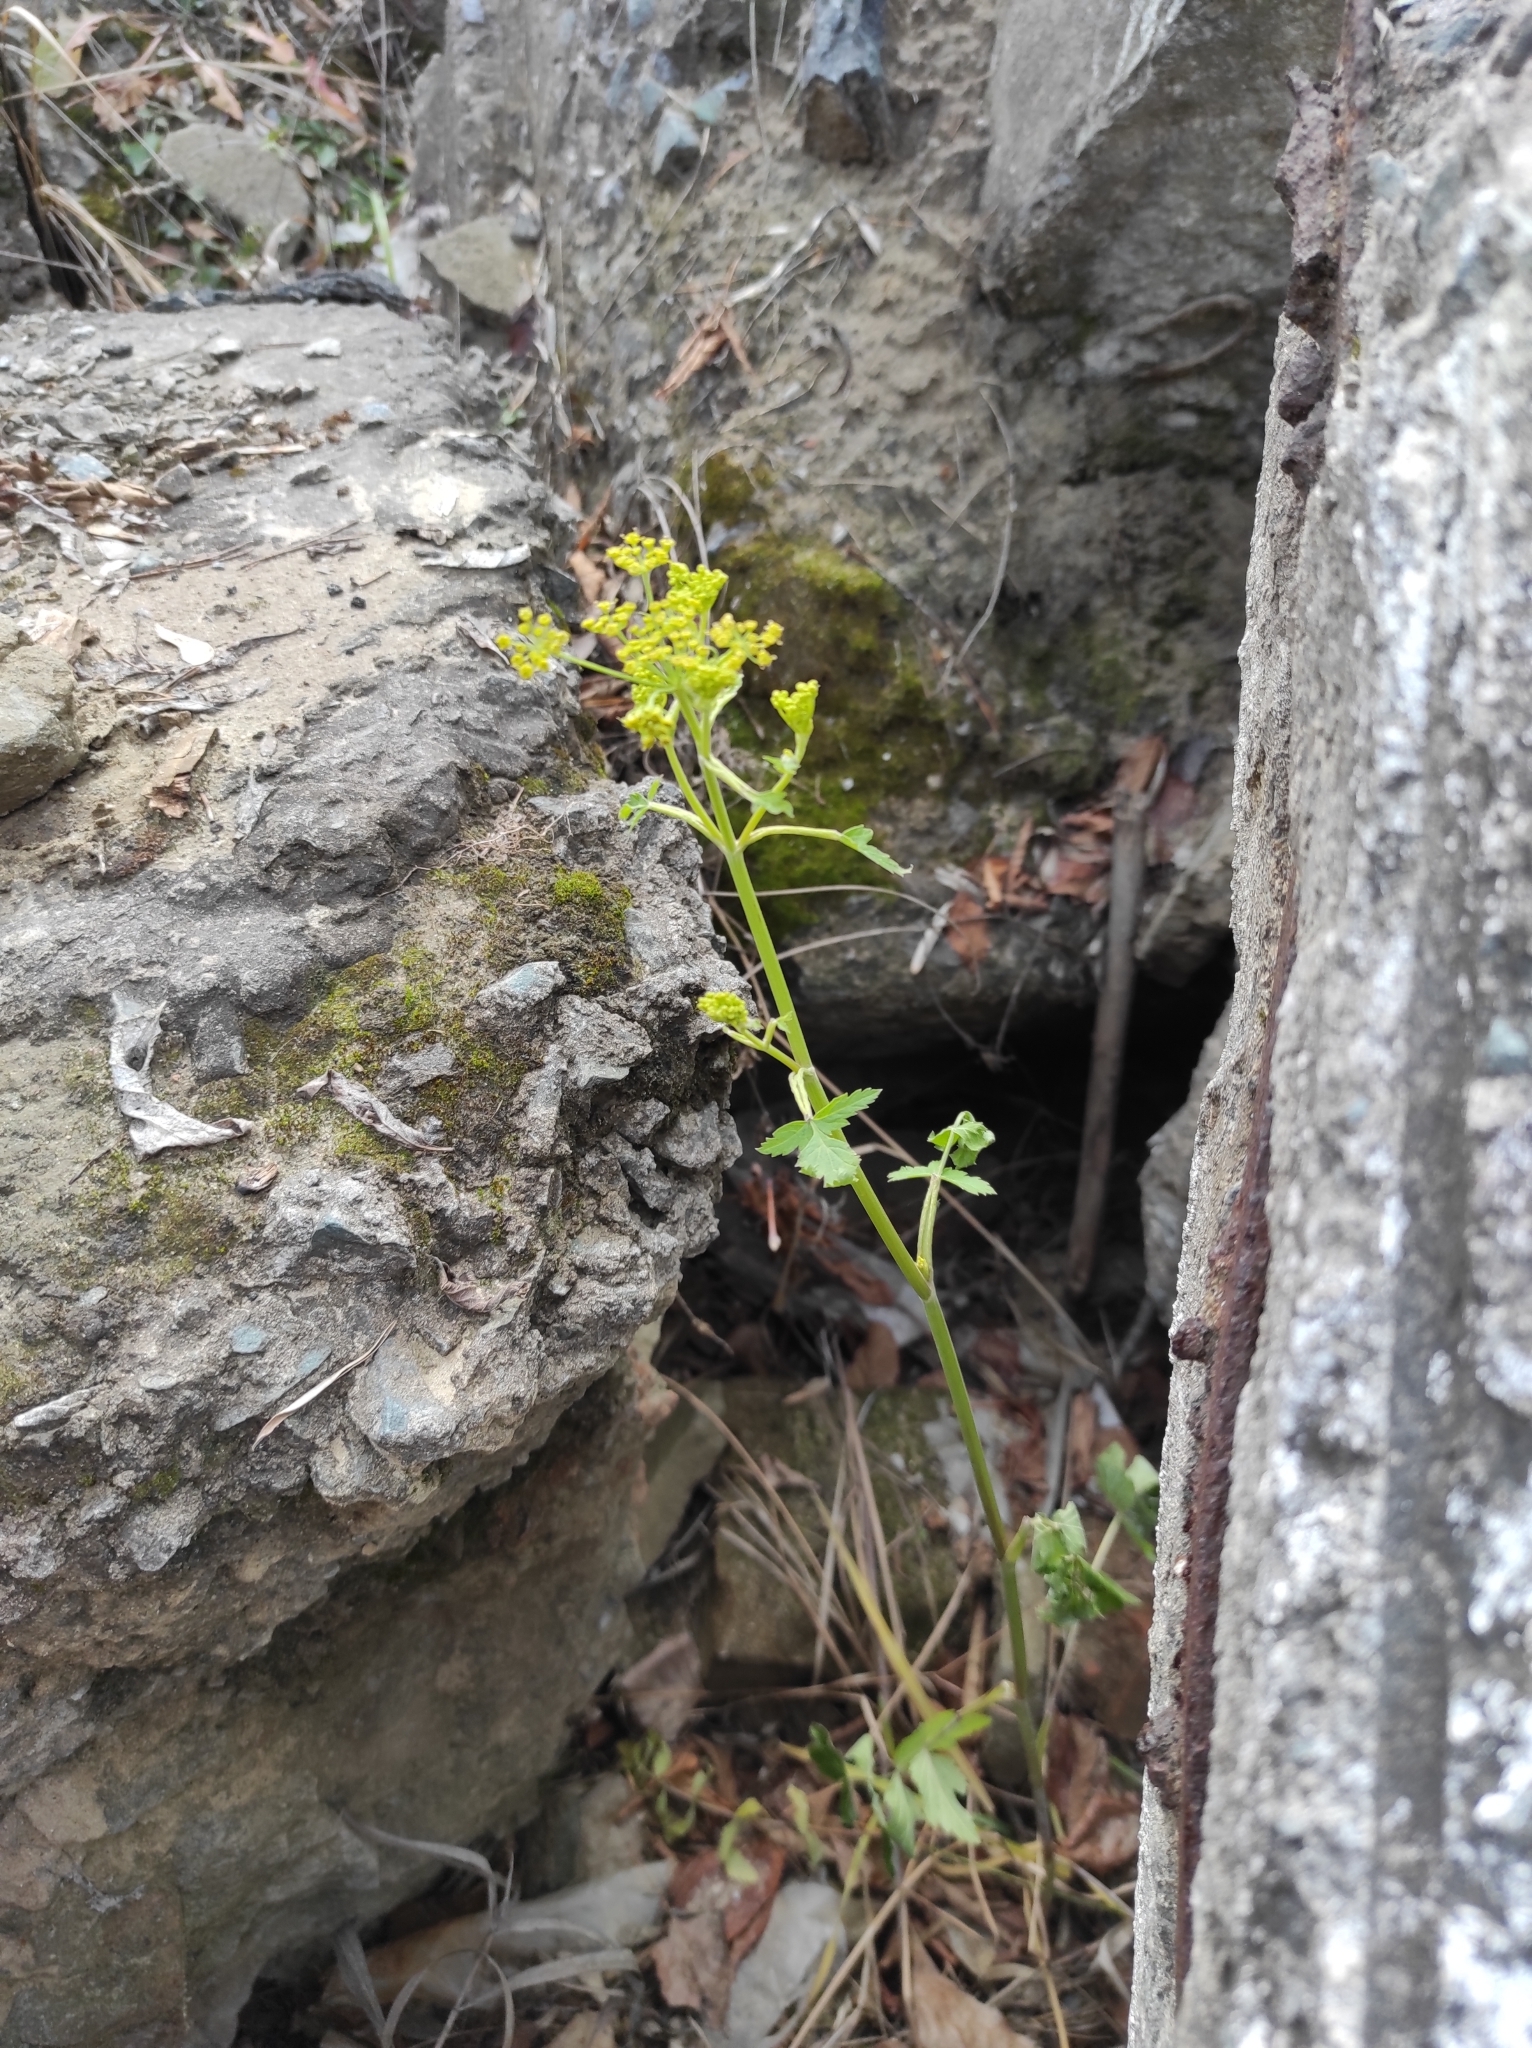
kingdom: Plantae
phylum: Tracheophyta
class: Magnoliopsida
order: Apiales
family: Apiaceae
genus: Pastinaca
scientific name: Pastinaca sativa
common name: Wild parsnip
